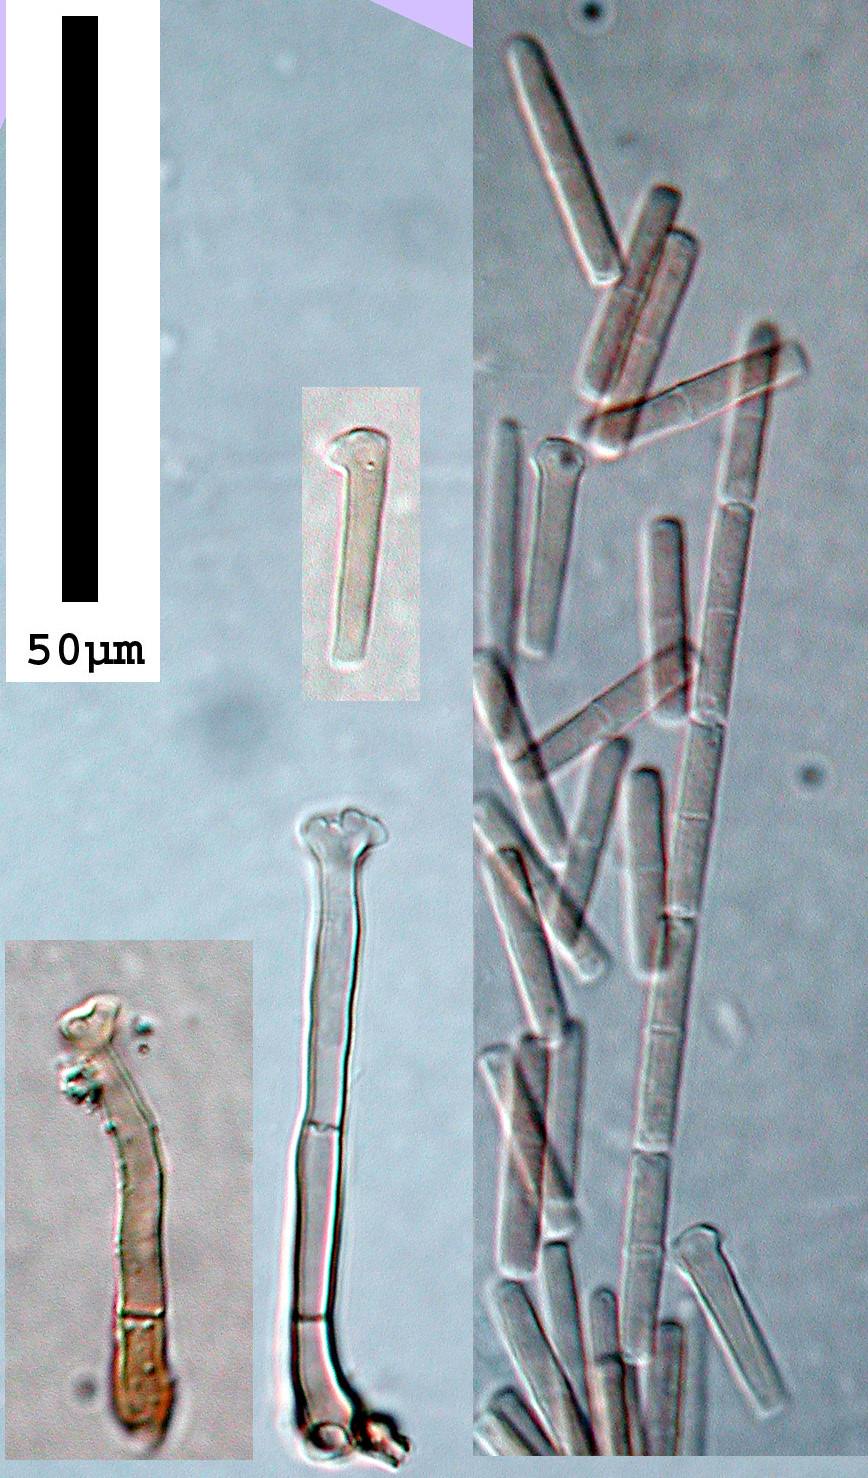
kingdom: Fungi
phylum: Ascomycota
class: Sordariomycetes
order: Xylariales
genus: Polyscytalum
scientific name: Polyscytalum gracilisporum
